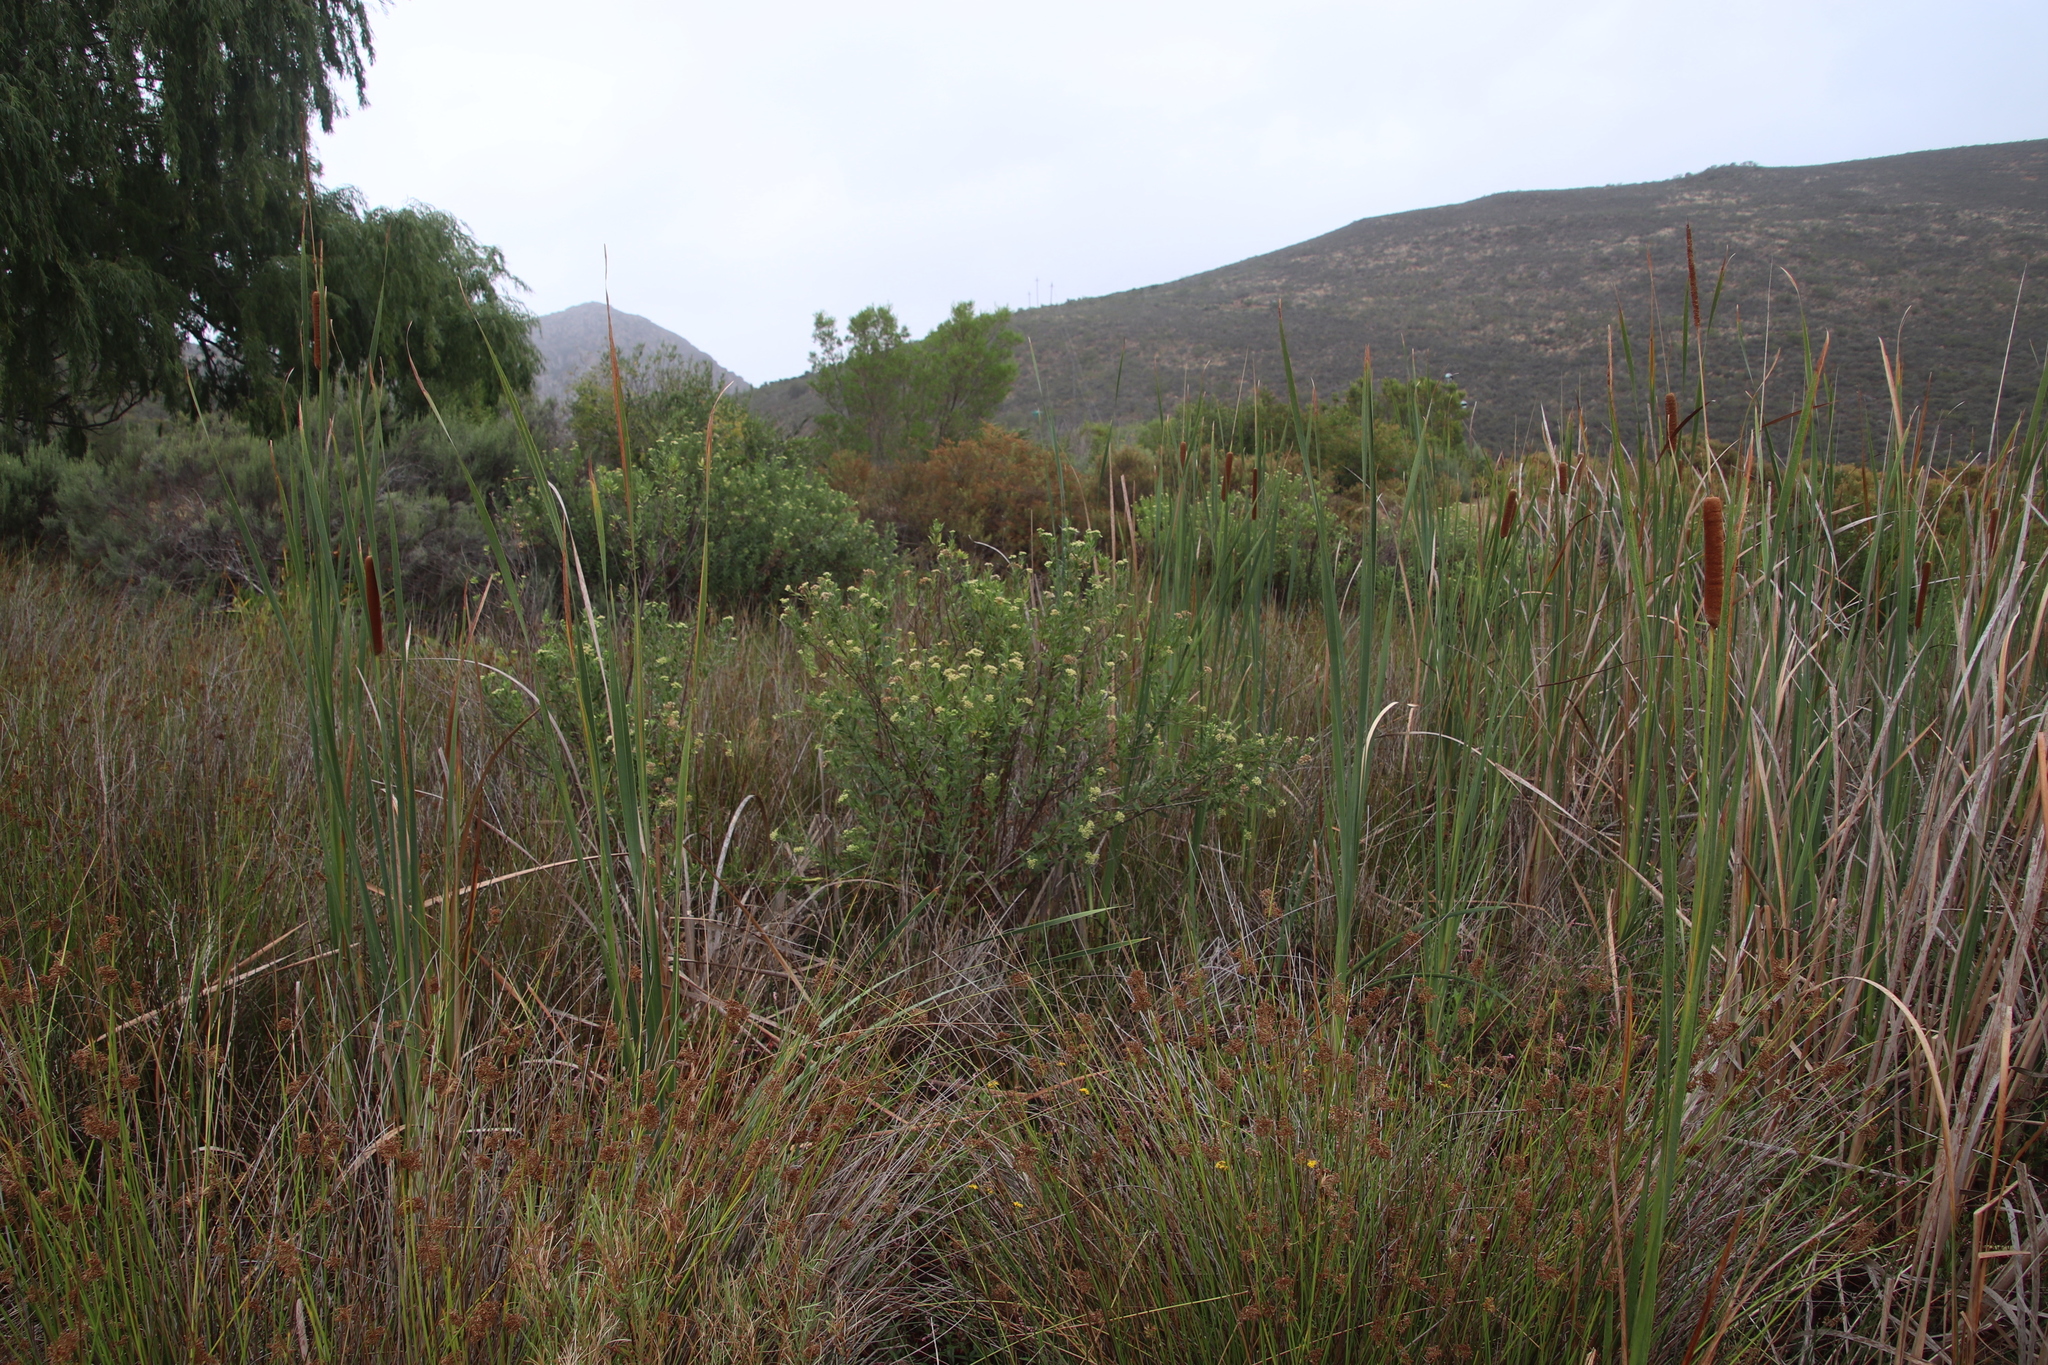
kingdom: Plantae
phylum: Tracheophyta
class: Magnoliopsida
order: Asterales
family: Asteraceae
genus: Nidorella
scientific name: Nidorella ivifolia
